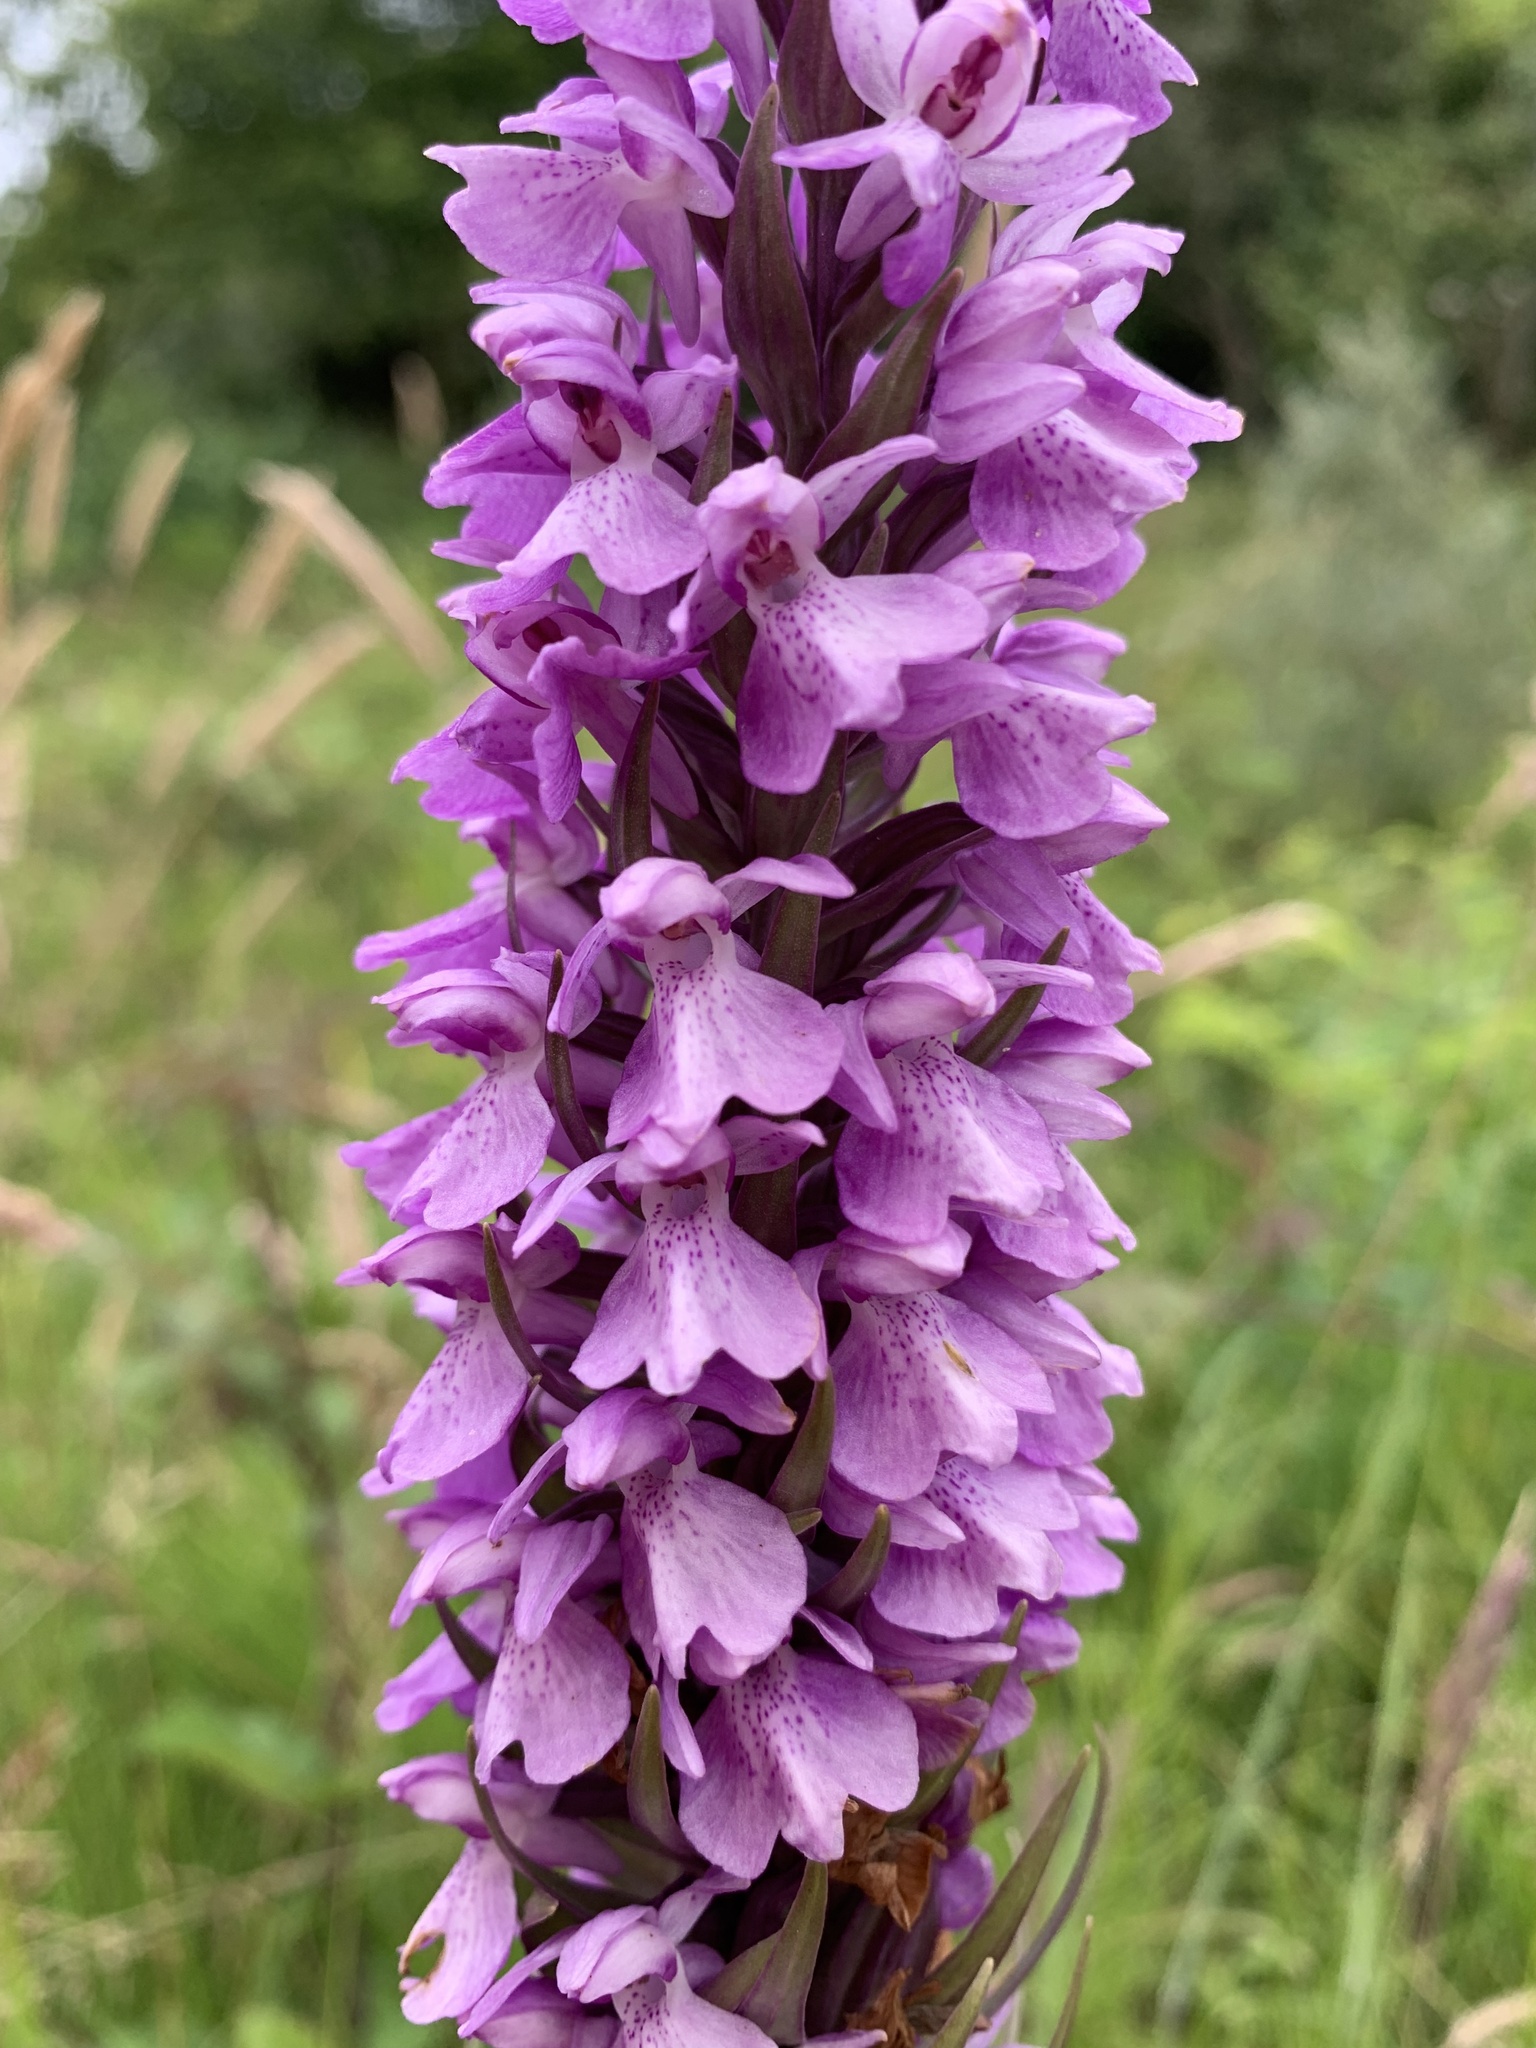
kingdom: Plantae
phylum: Tracheophyta
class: Liliopsida
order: Asparagales
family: Orchidaceae
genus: Dactylorhiza
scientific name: Dactylorhiza majalis
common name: Marsh orchid
